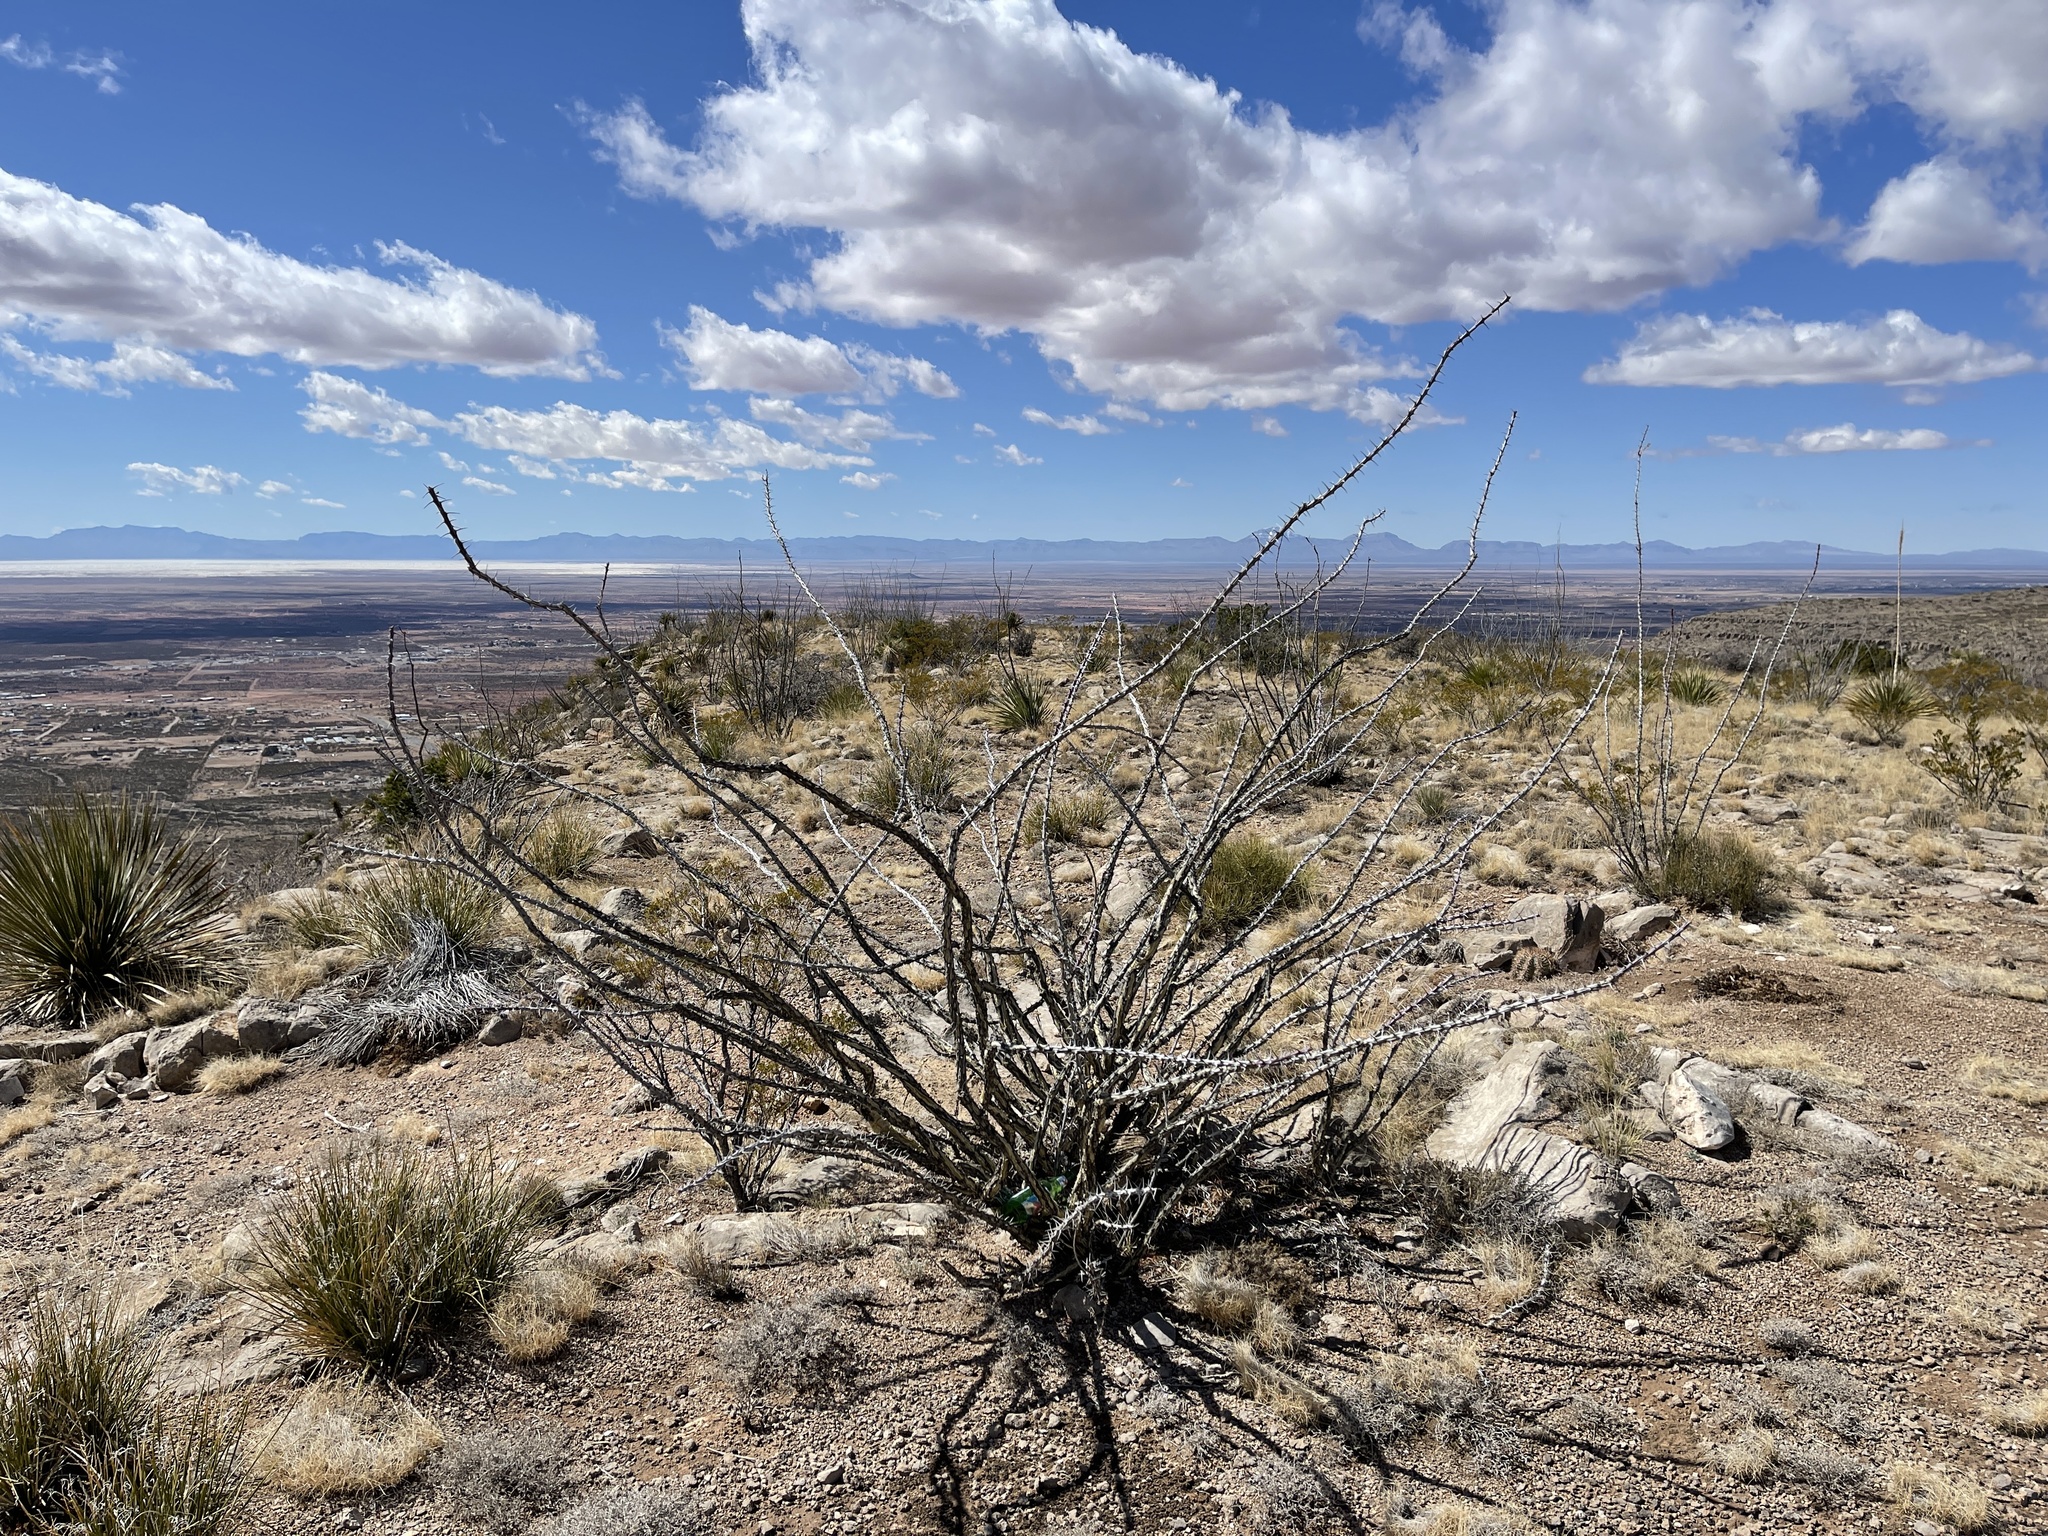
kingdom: Plantae
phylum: Tracheophyta
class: Magnoliopsida
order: Ericales
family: Fouquieriaceae
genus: Fouquieria
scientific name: Fouquieria splendens
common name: Vine-cactus
